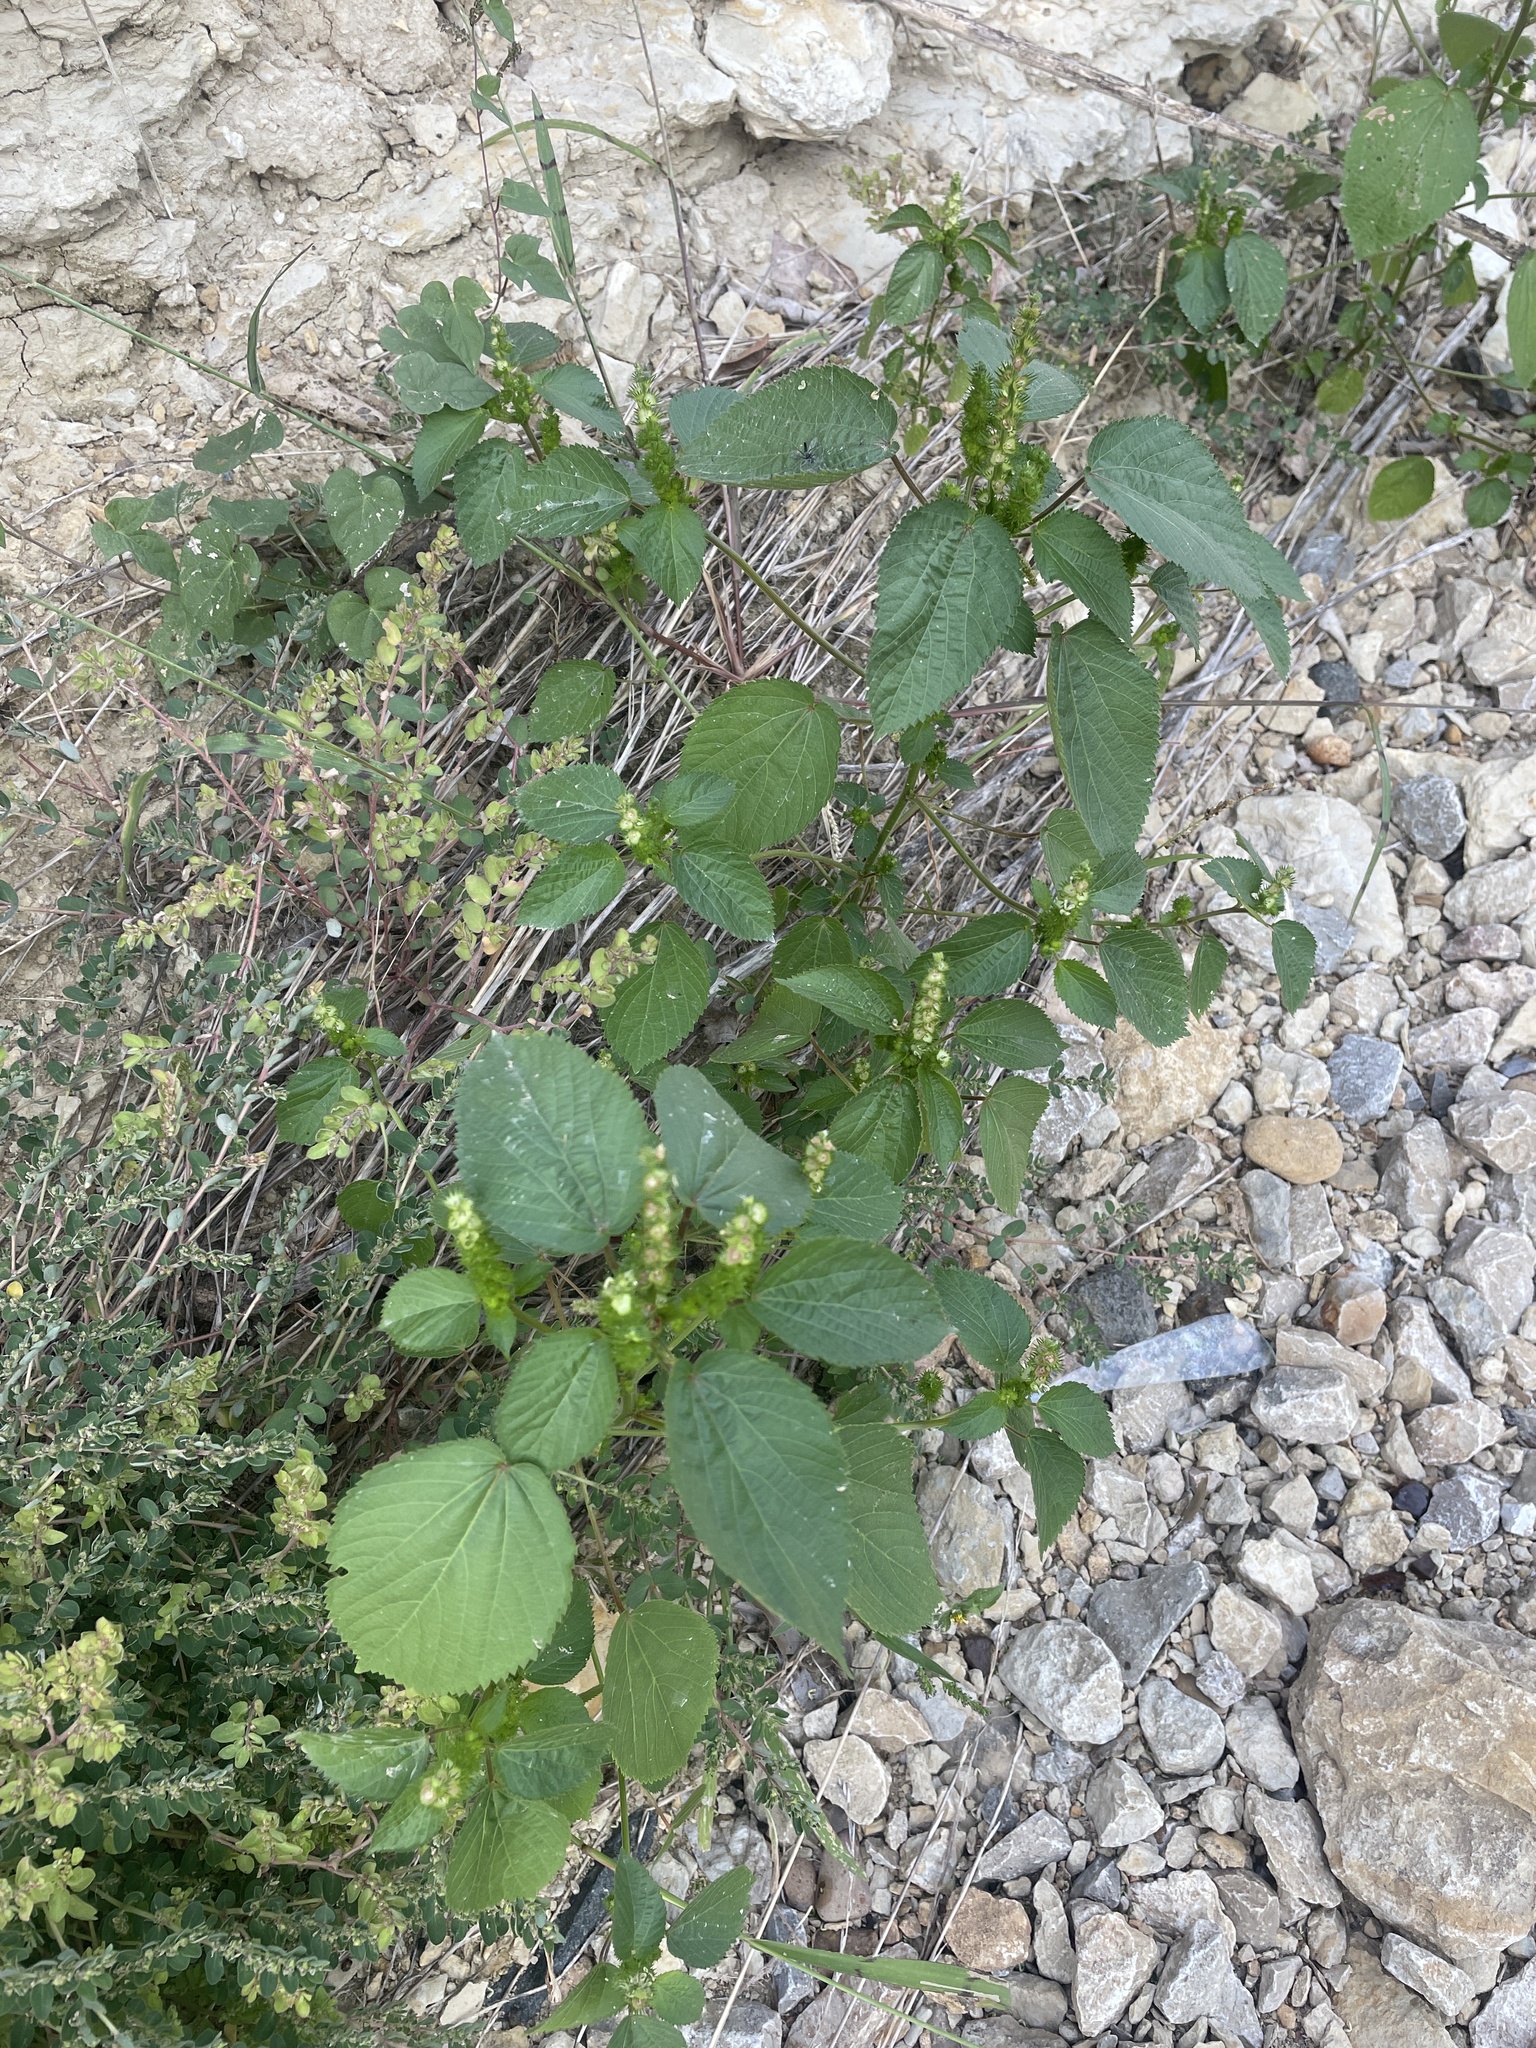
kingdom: Plantae
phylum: Tracheophyta
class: Magnoliopsida
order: Malpighiales
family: Euphorbiaceae
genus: Acalypha
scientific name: Acalypha ostryifolia
